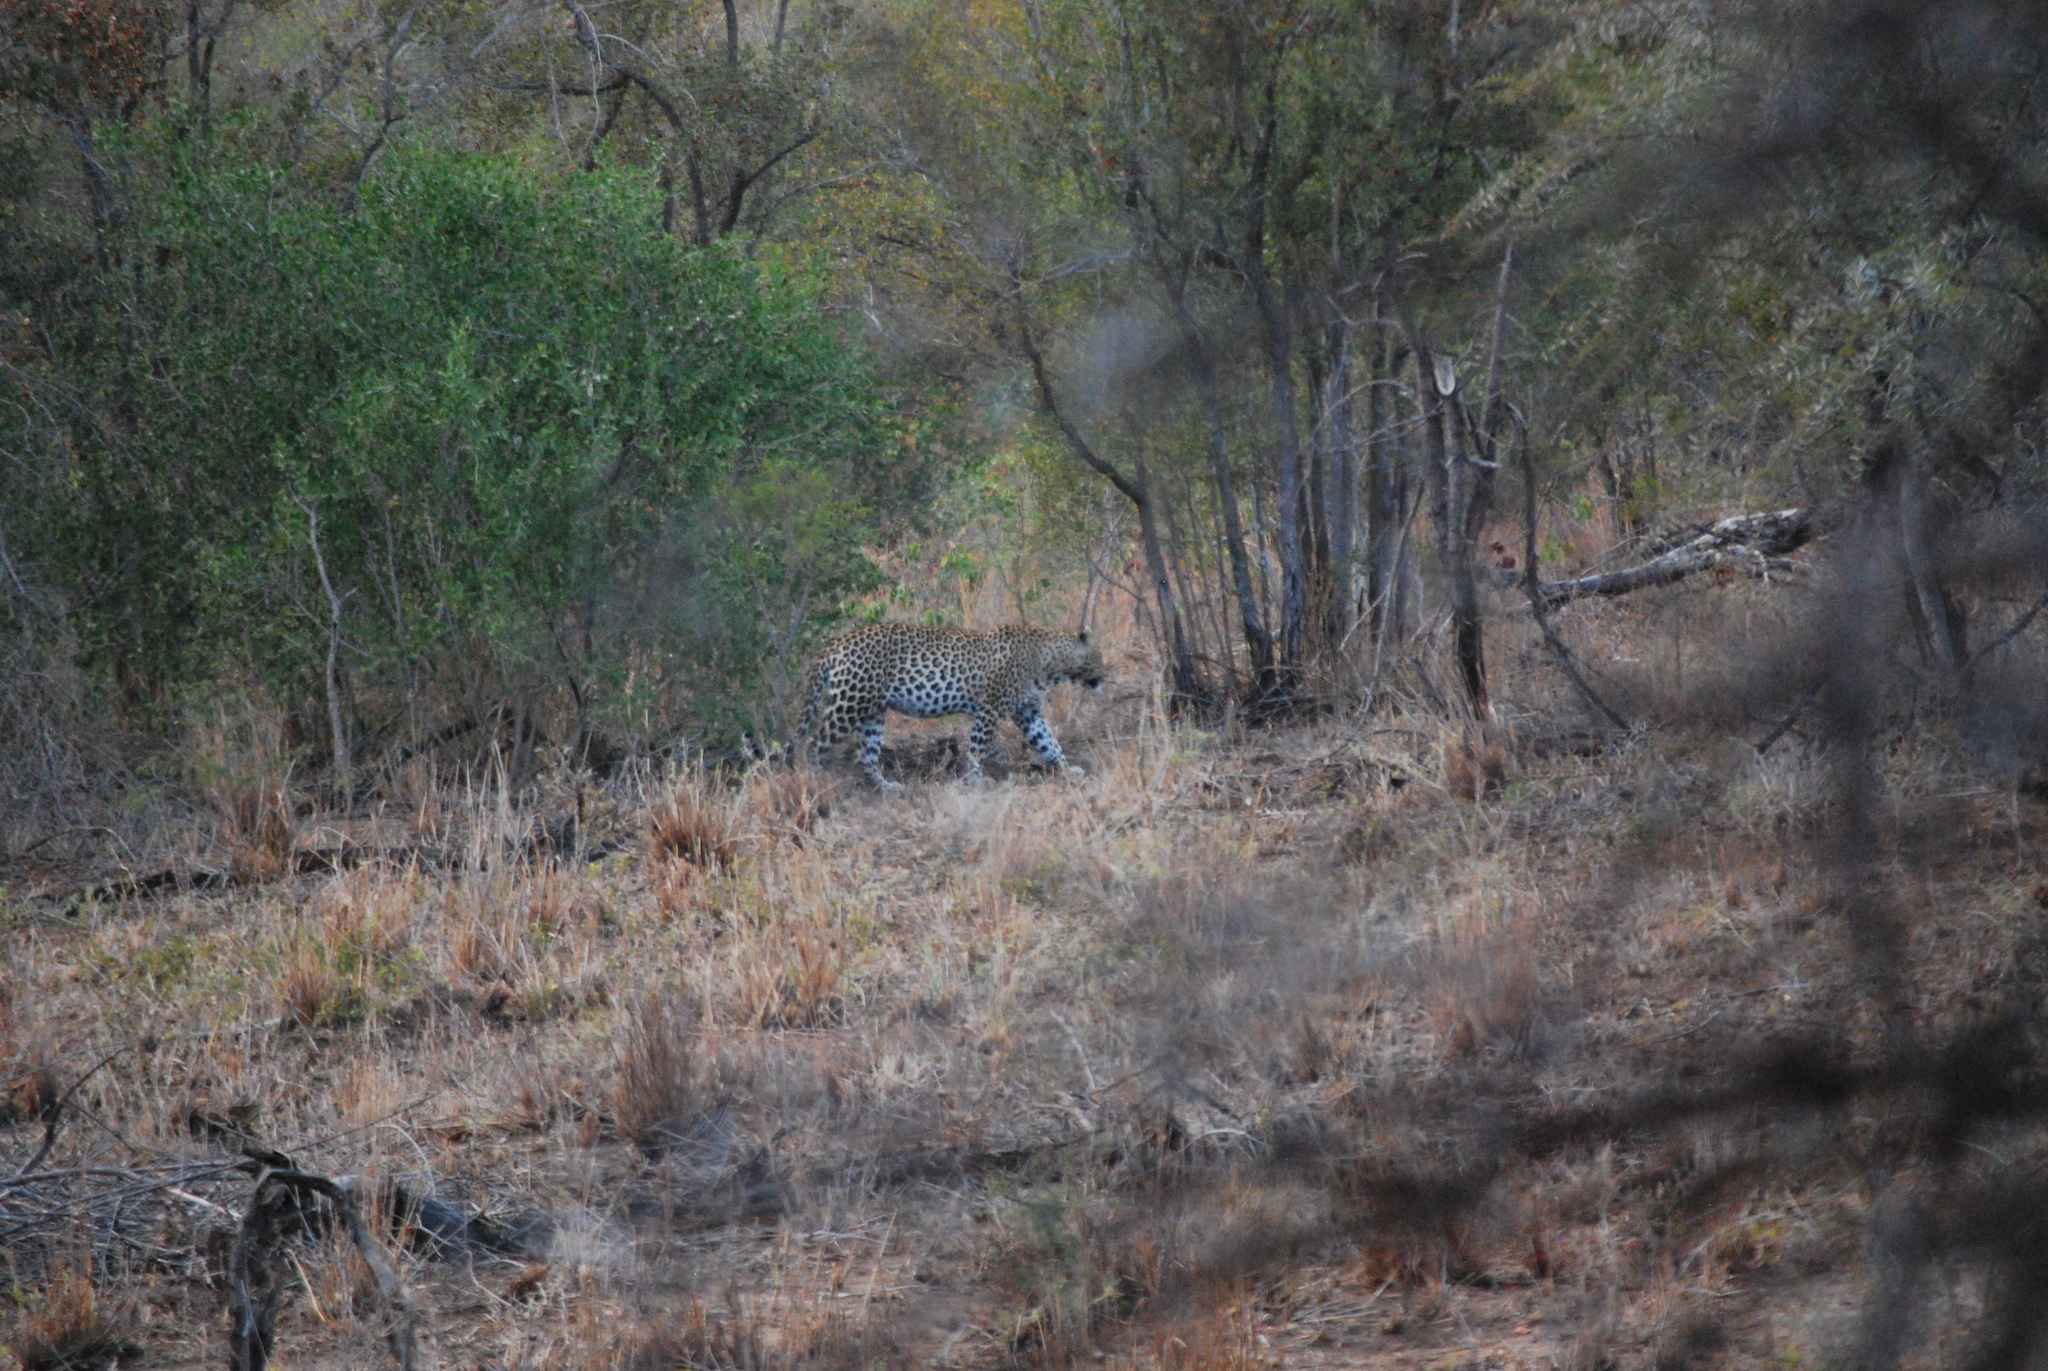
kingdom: Animalia
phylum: Chordata
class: Mammalia
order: Carnivora
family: Felidae
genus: Panthera
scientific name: Panthera pardus
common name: Leopard
